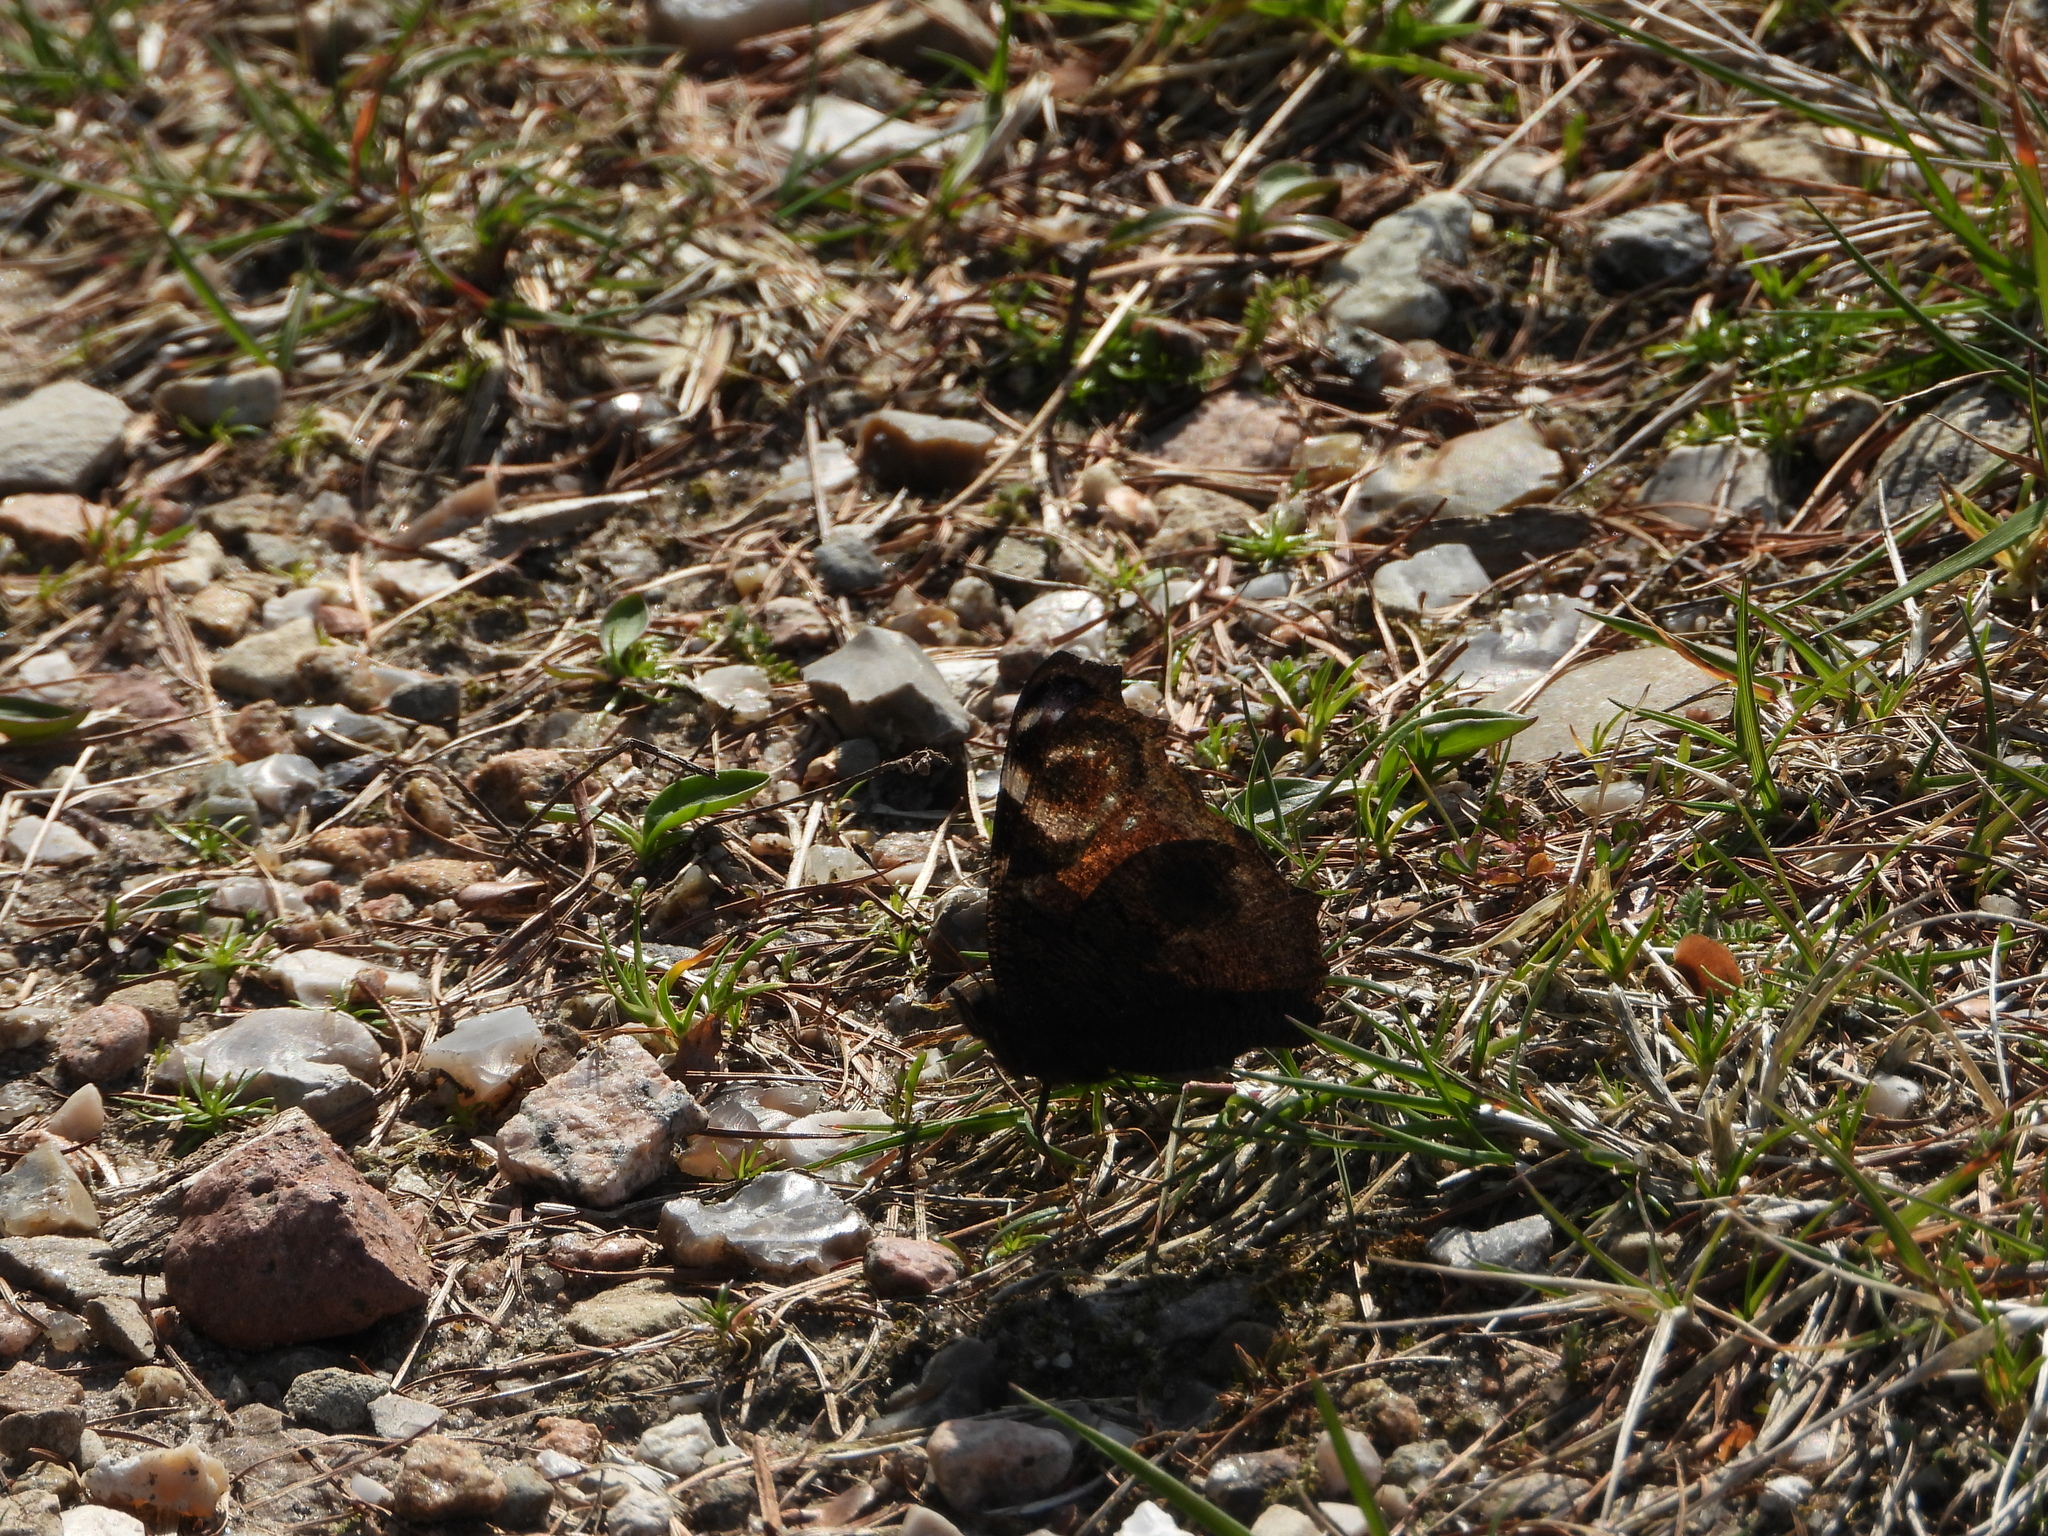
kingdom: Animalia
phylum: Arthropoda
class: Insecta
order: Lepidoptera
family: Nymphalidae
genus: Aglais
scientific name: Aglais io
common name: Peacock
